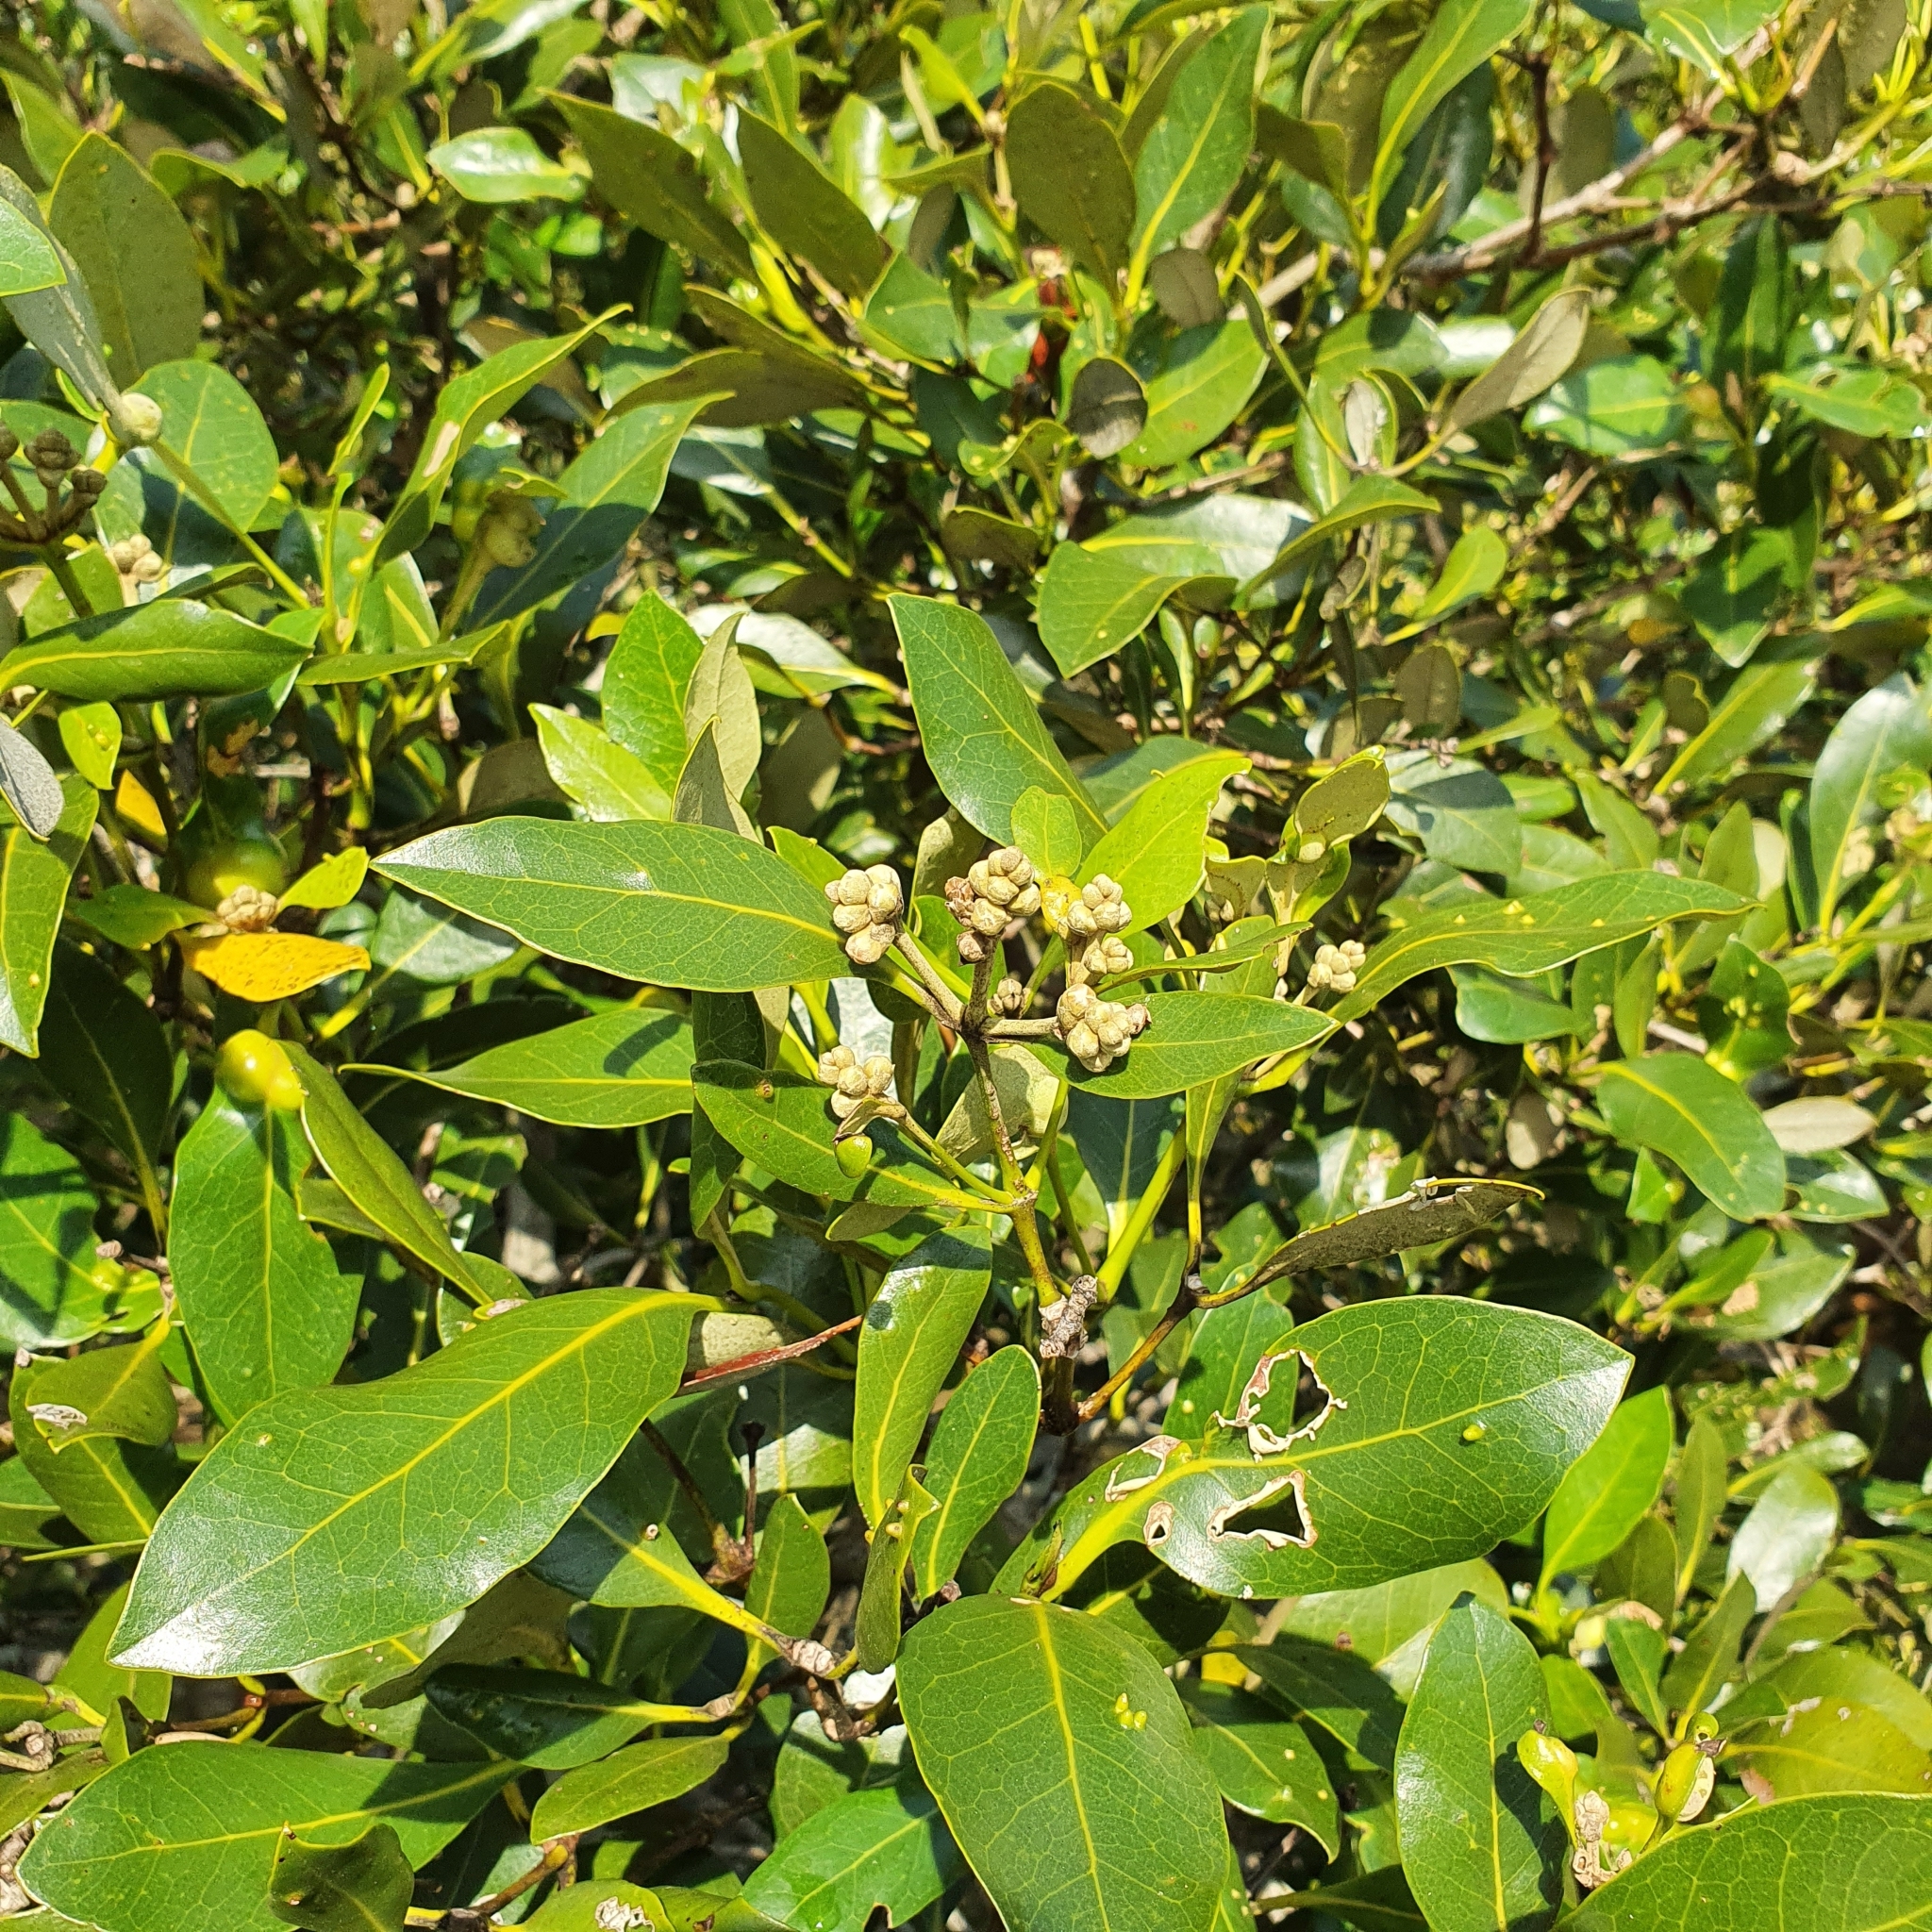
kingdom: Plantae
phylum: Tracheophyta
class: Magnoliopsida
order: Lamiales
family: Acanthaceae
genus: Avicennia
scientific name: Avicennia marina
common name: Gray mangrove
